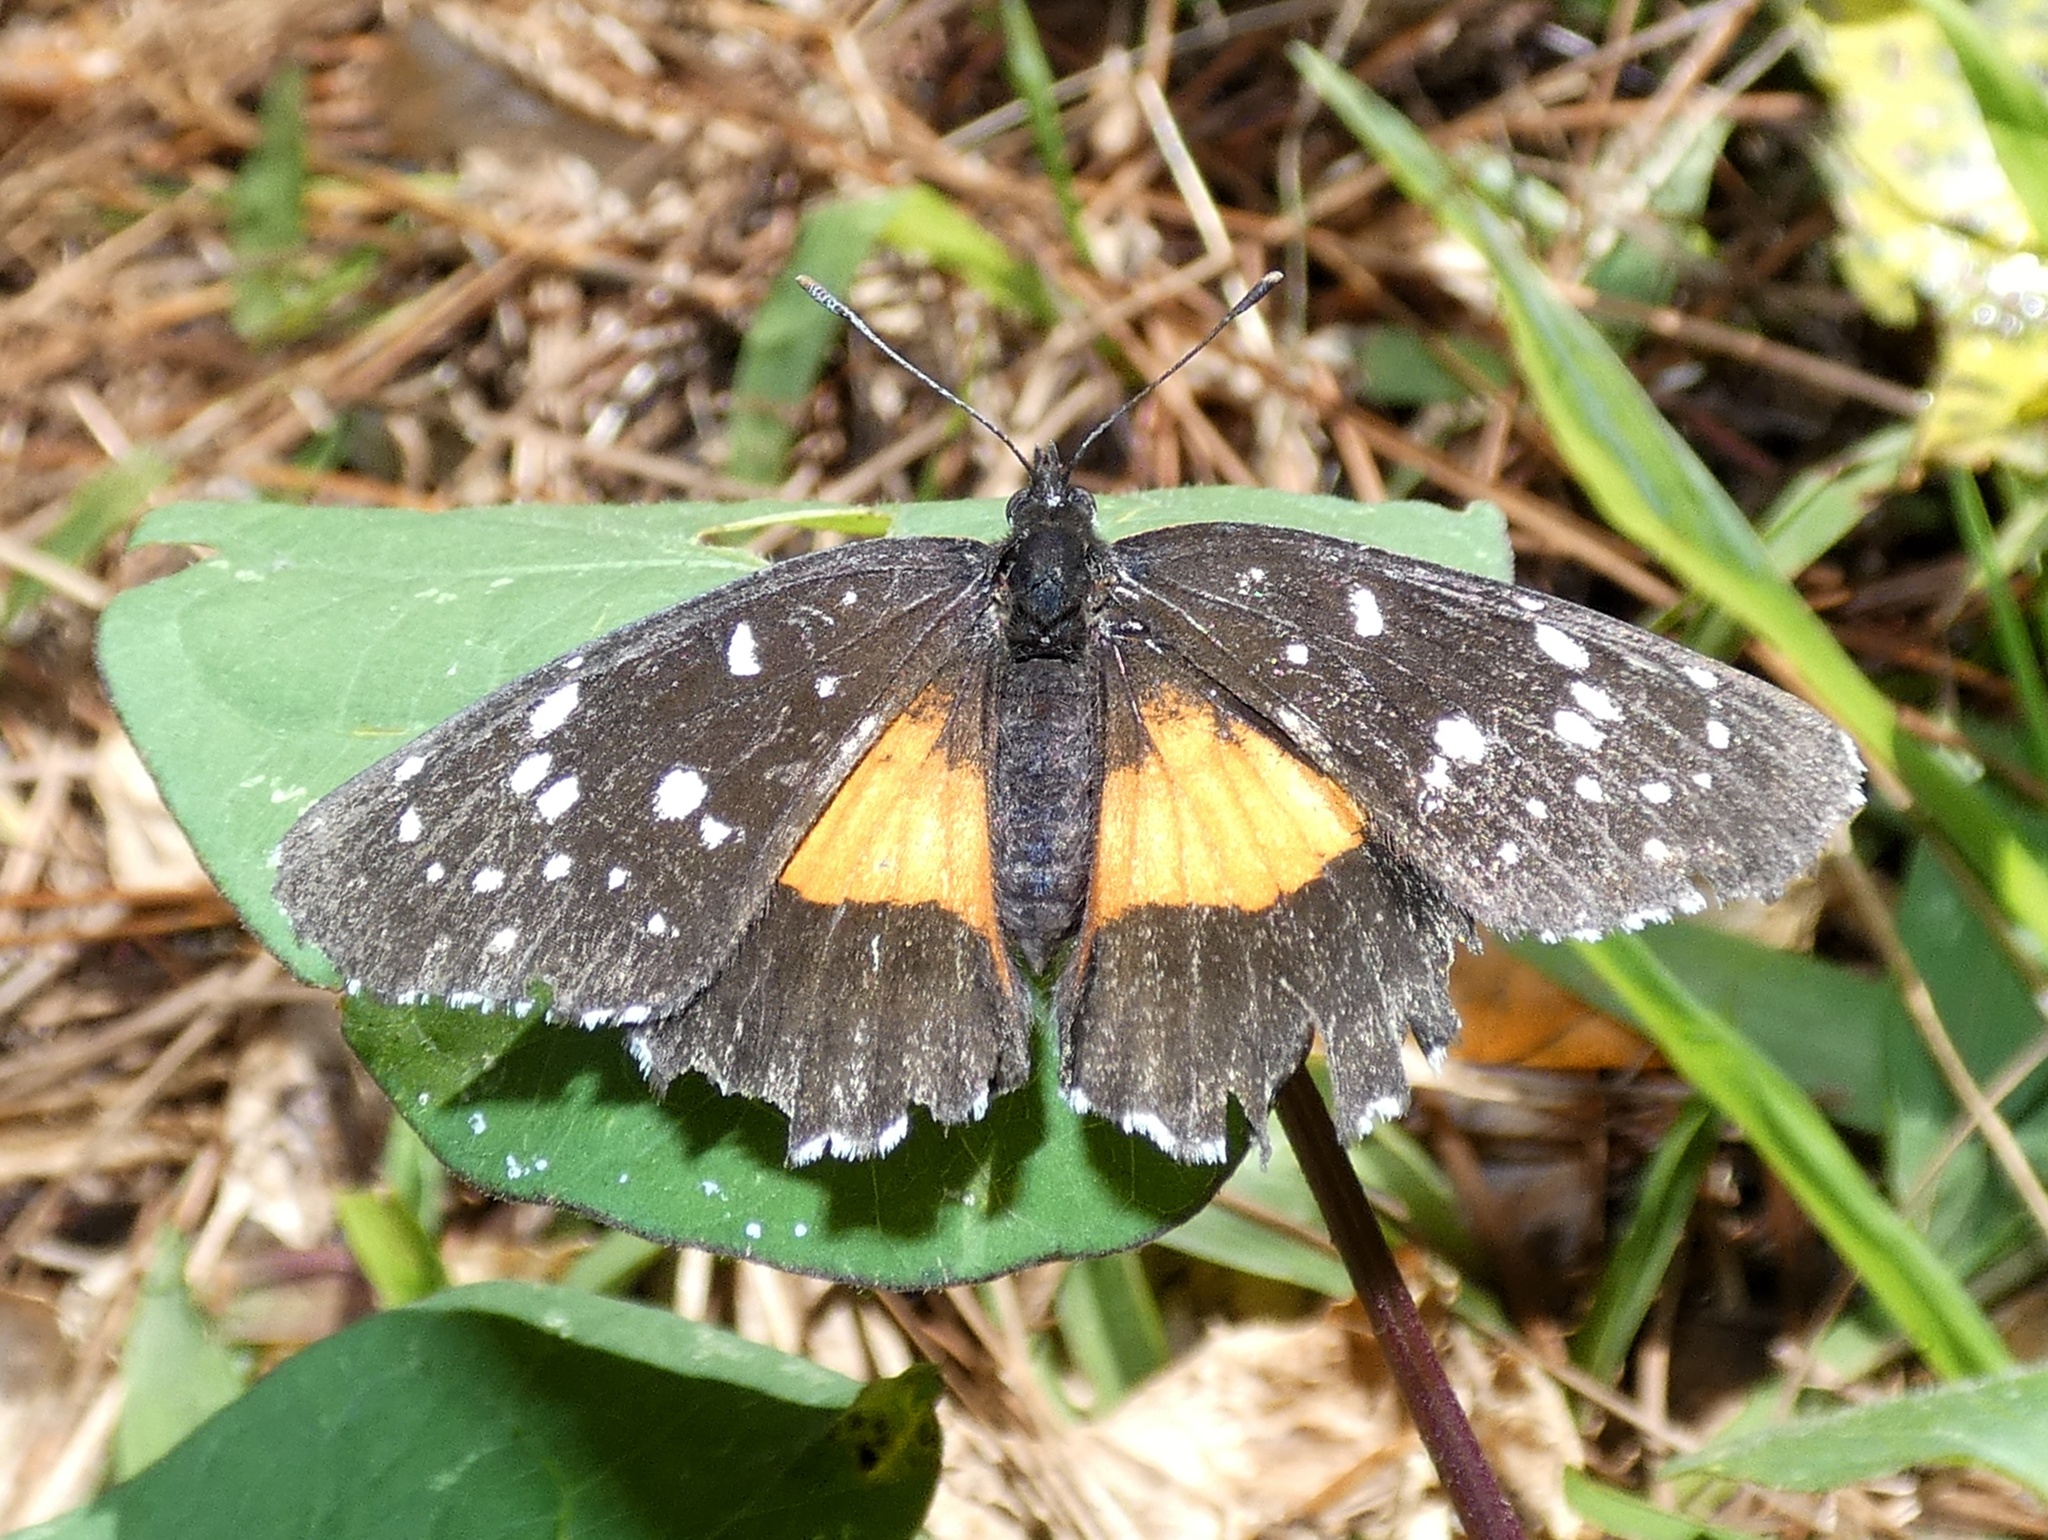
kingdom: Animalia
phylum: Arthropoda
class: Insecta
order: Lepidoptera
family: Nymphalidae
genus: Chlosyne
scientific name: Chlosyne lacinia
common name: Bordered patch
